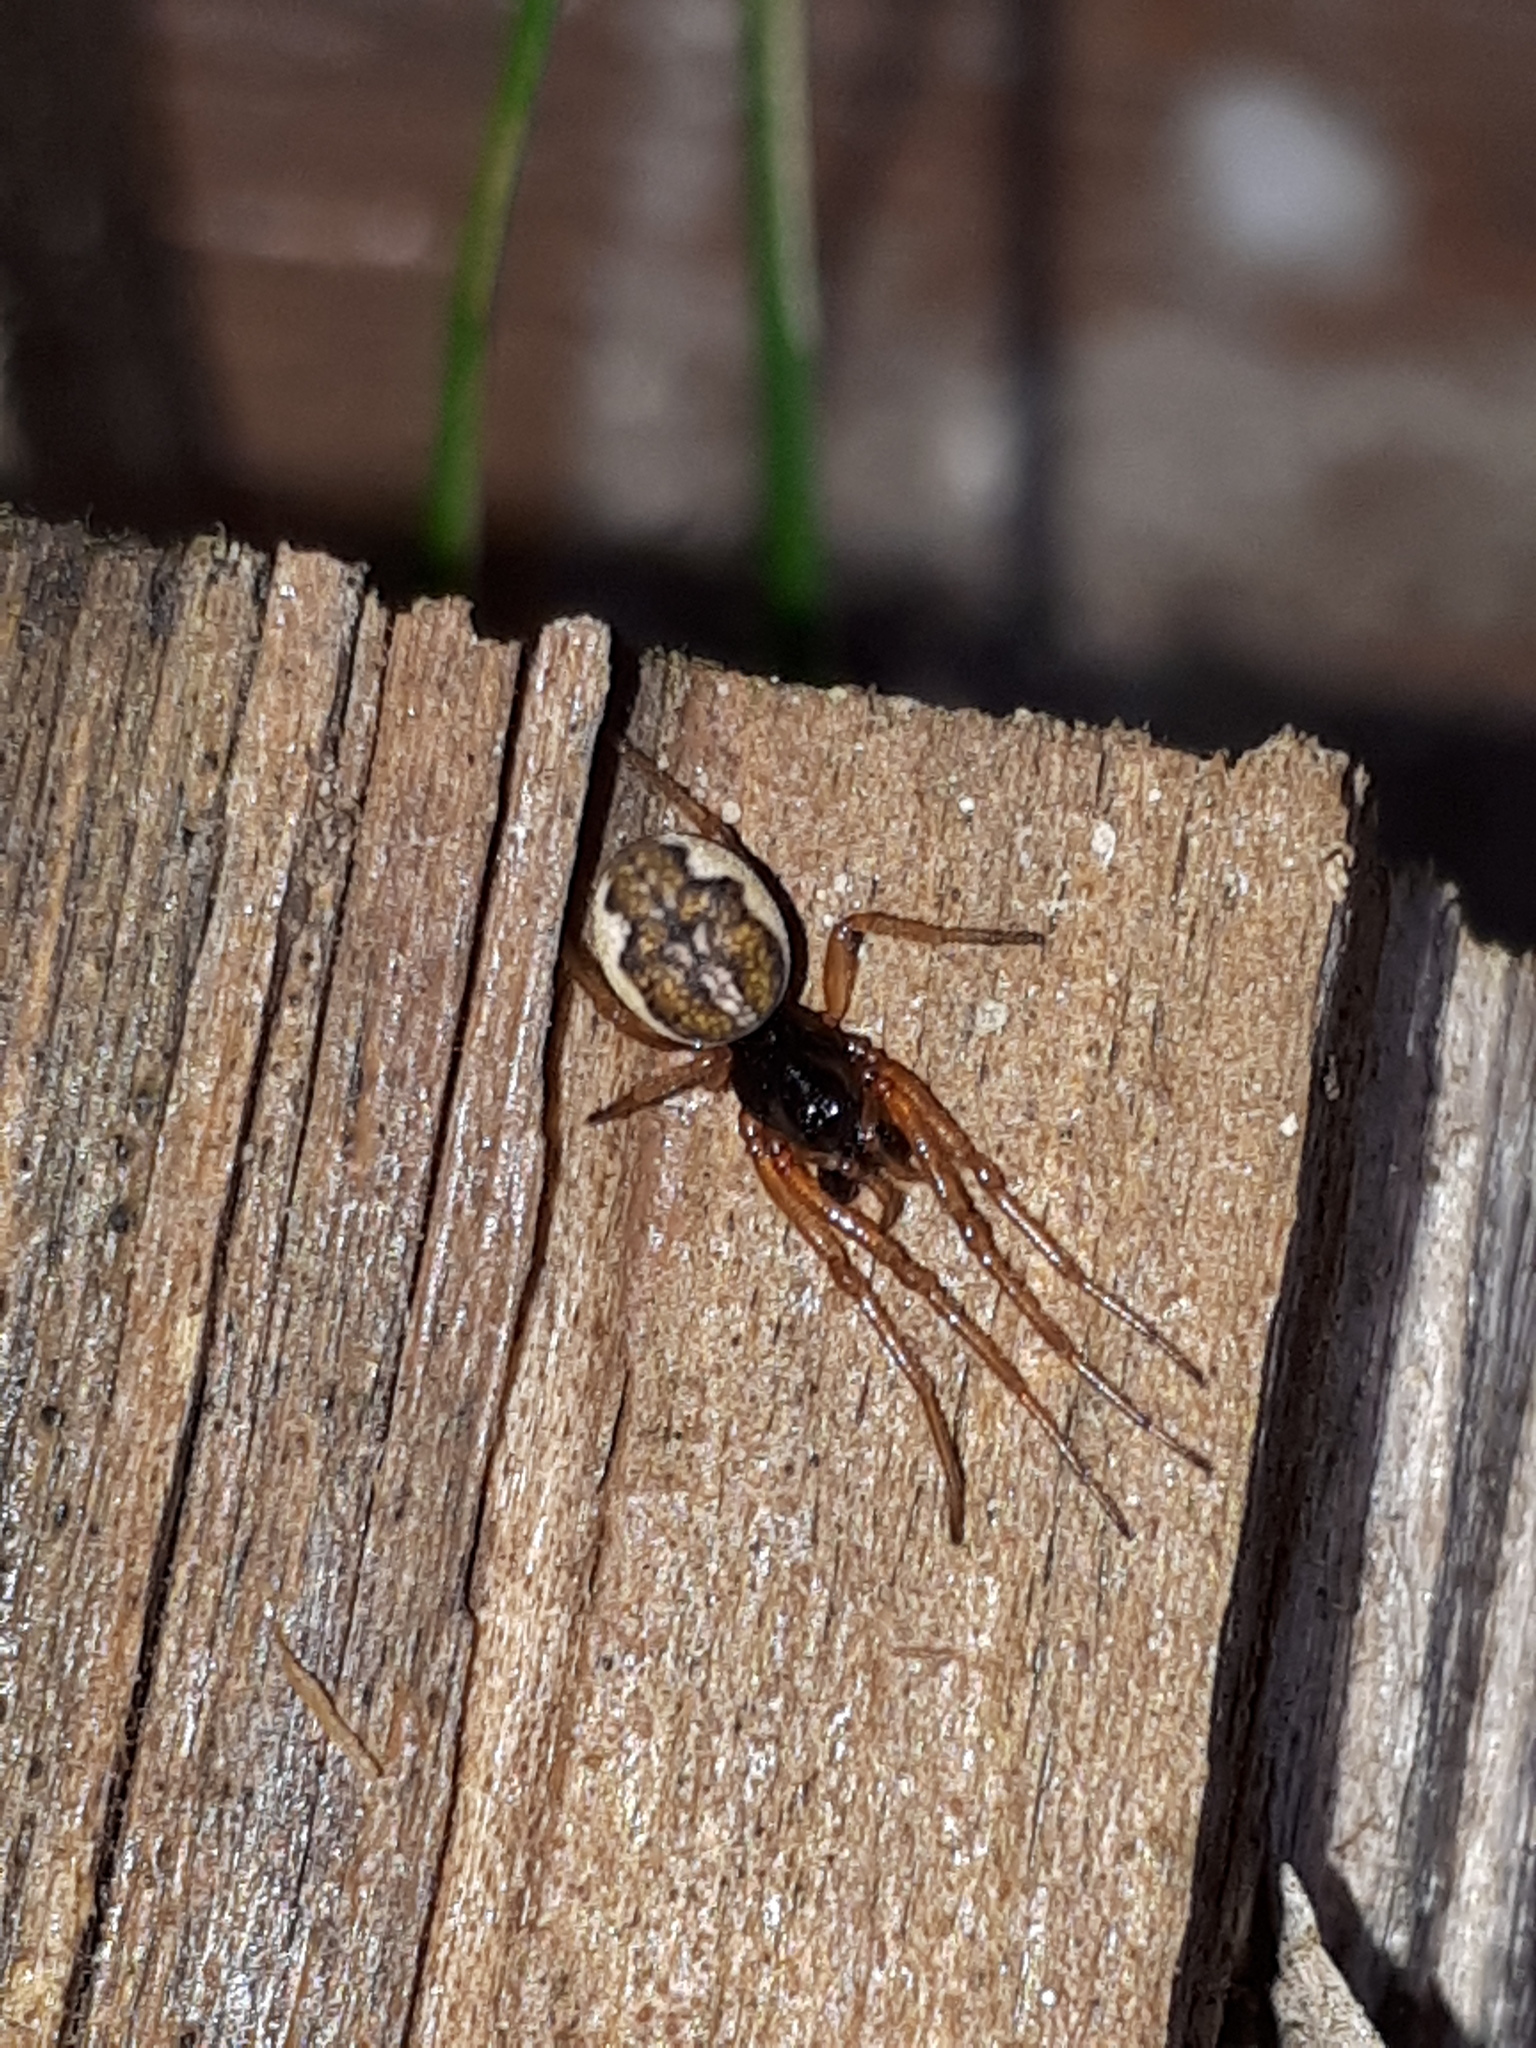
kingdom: Animalia
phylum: Arthropoda
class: Arachnida
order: Araneae
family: Tetragnathidae
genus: Pachygnatha
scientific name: Pachygnatha degeeri
